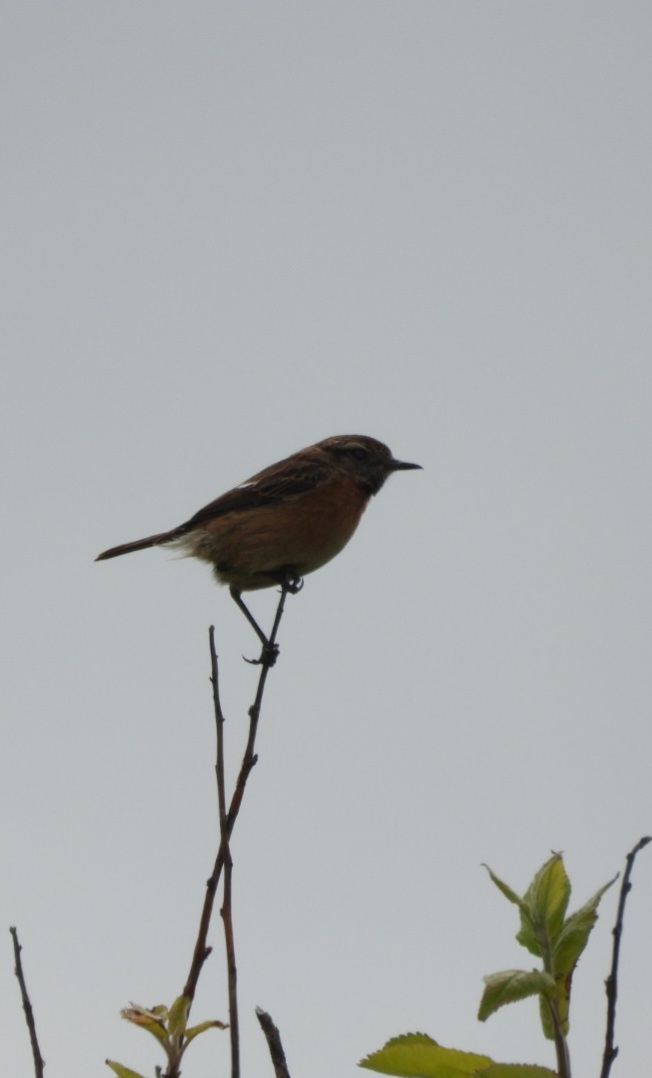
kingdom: Animalia
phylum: Chordata
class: Aves
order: Passeriformes
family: Muscicapidae
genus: Saxicola
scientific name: Saxicola rubicola
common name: European stonechat
